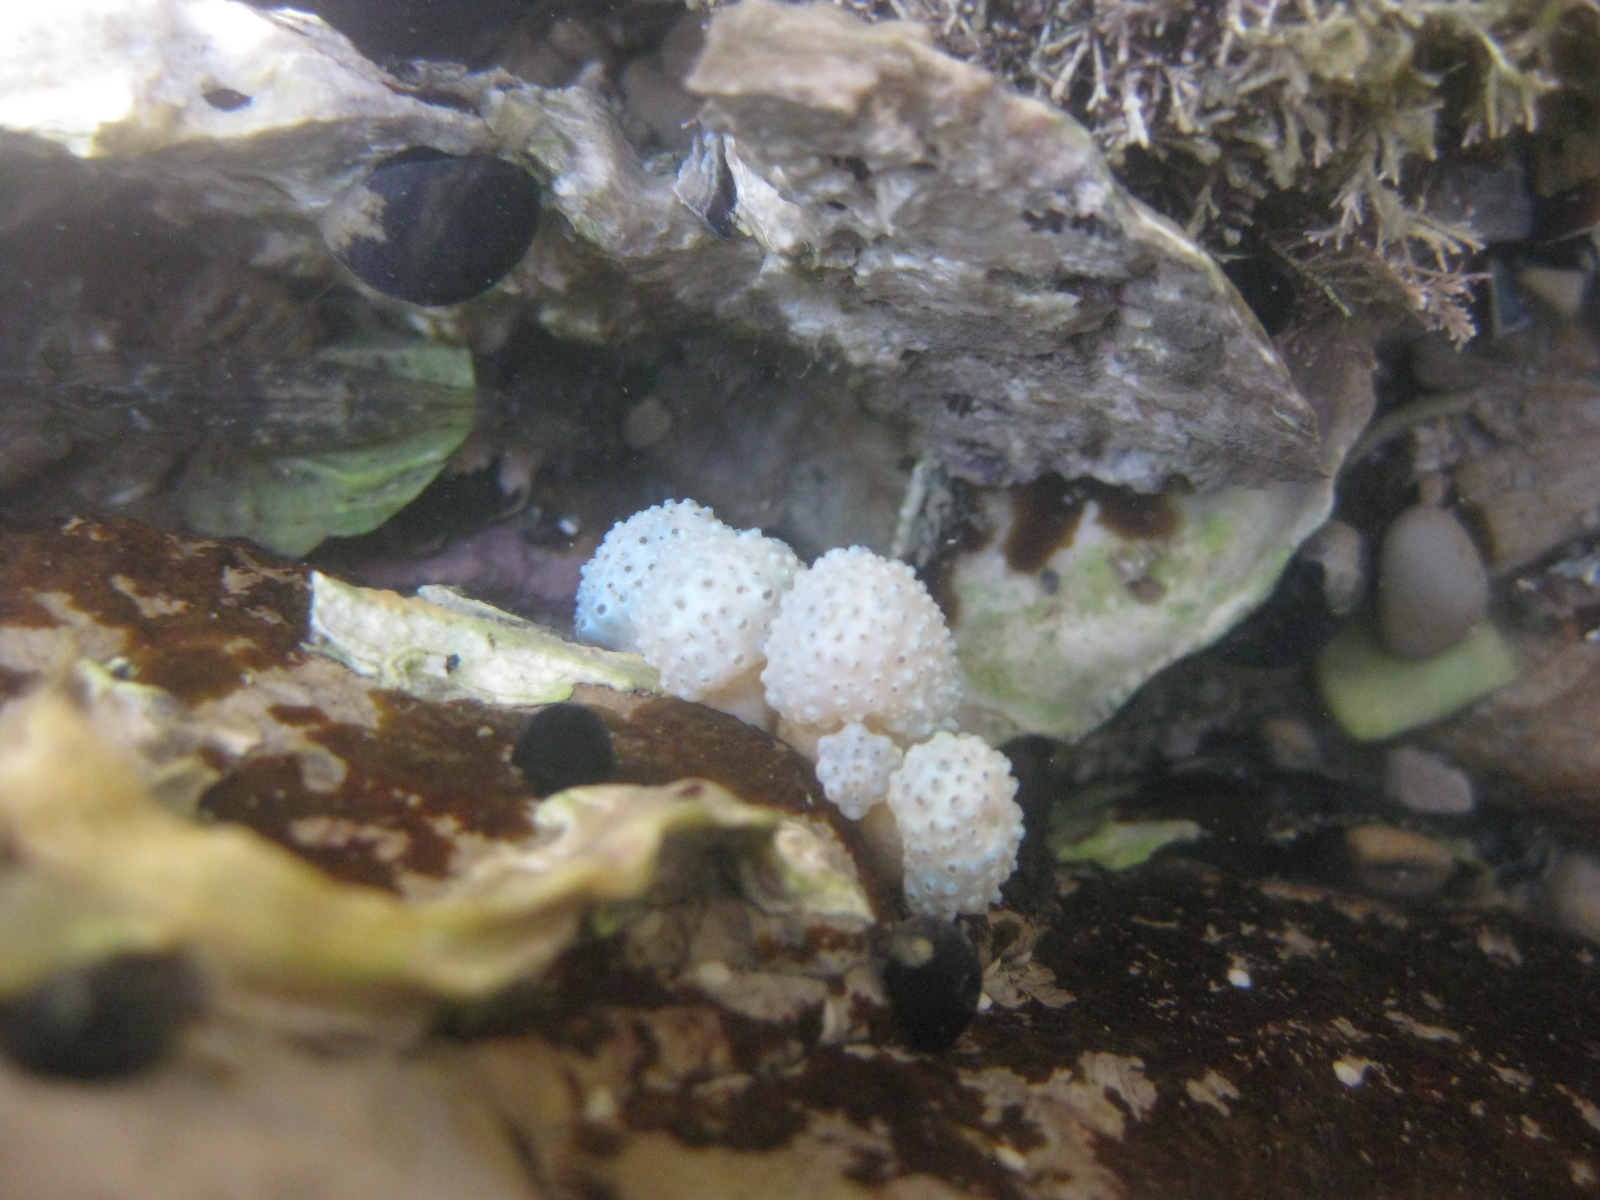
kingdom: Animalia
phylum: Chordata
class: Ascidiacea
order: Aplousobranchia
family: Polycitoridae
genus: Eudistoma
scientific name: Eudistoma elongatum
